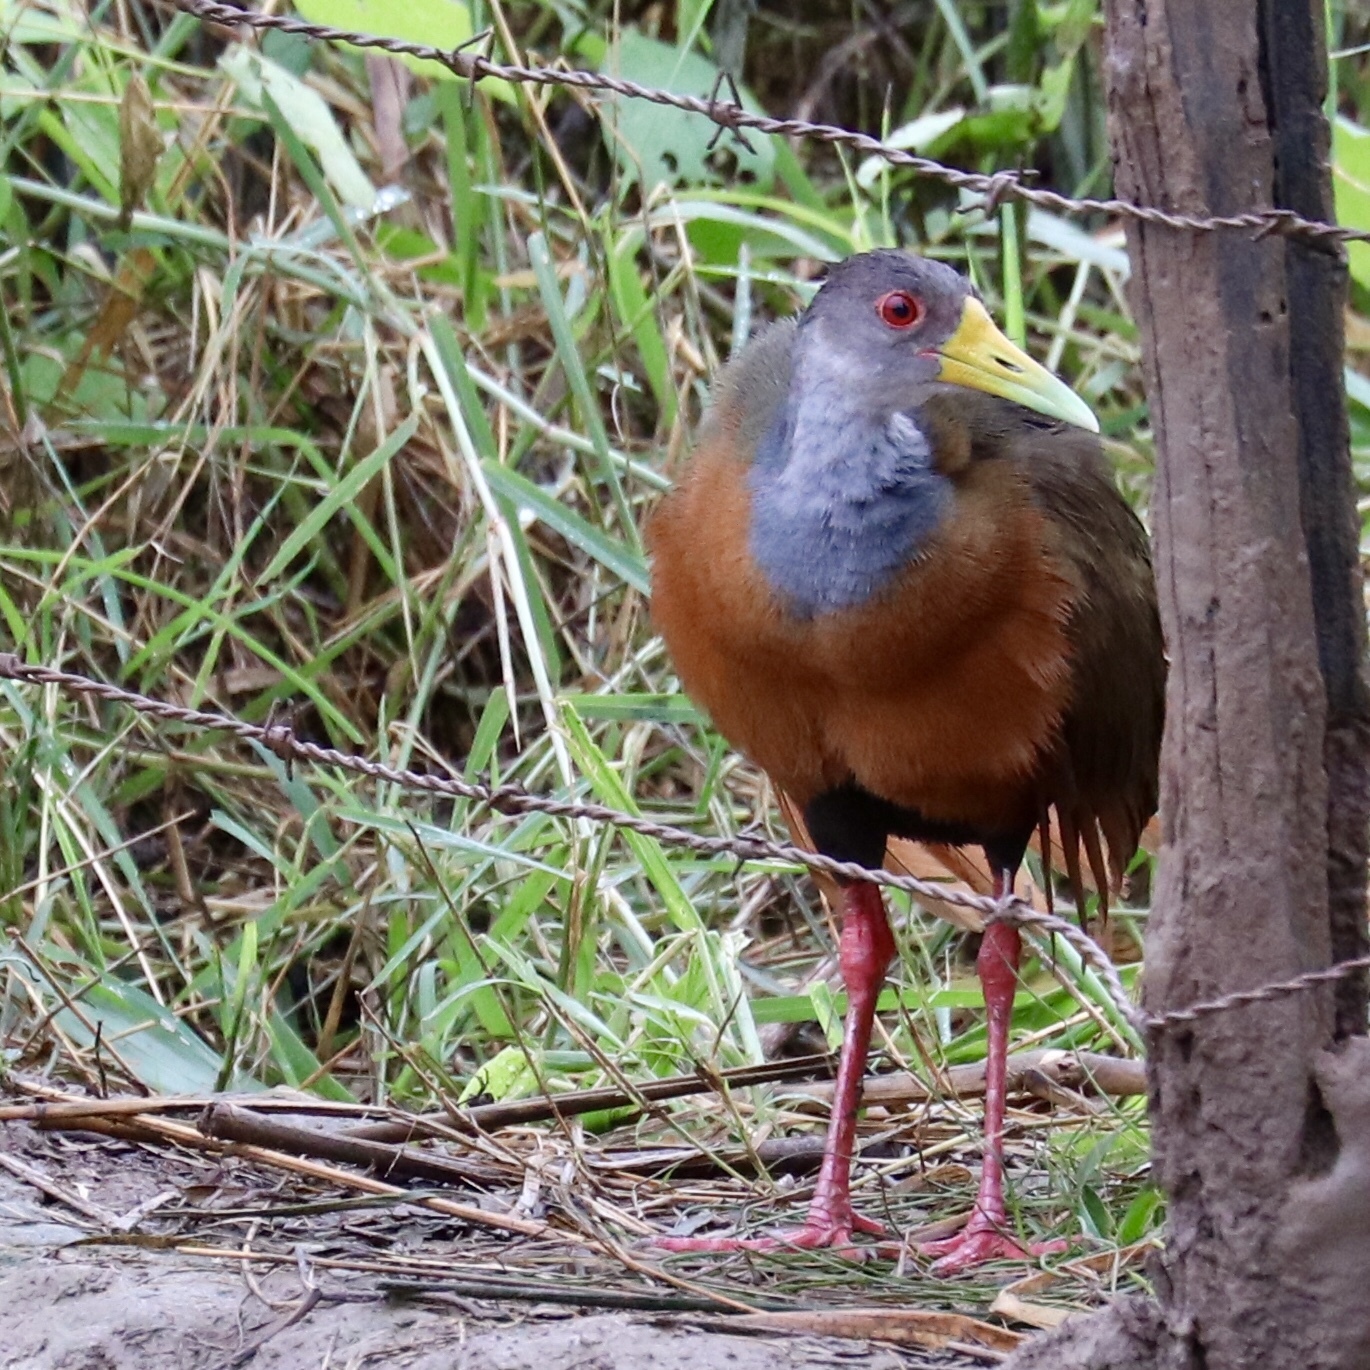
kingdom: Animalia
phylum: Chordata
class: Aves
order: Gruiformes
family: Rallidae
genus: Aramides
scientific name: Aramides cajanea
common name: Gray-necked wood-rail
